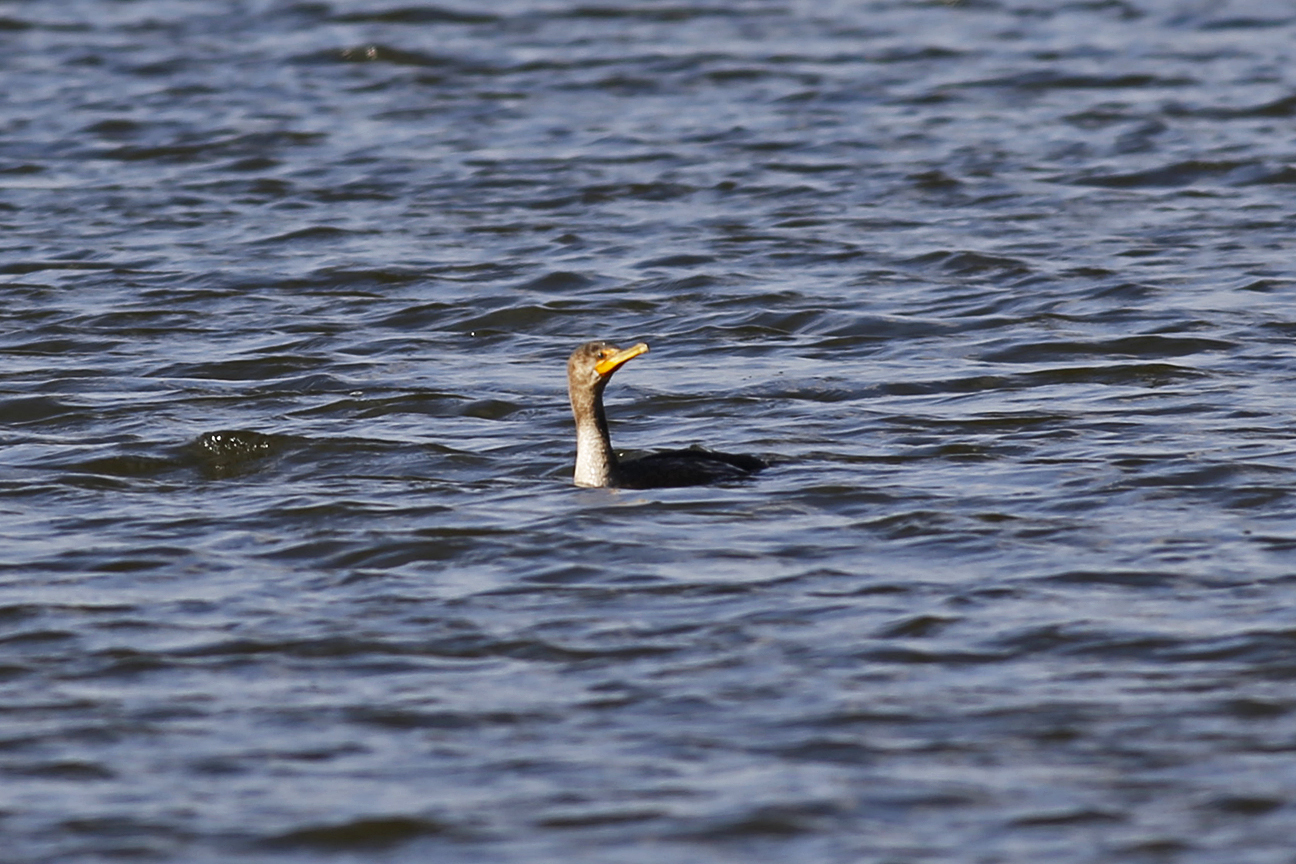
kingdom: Animalia
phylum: Chordata
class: Aves
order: Suliformes
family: Phalacrocoracidae
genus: Phalacrocorax
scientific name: Phalacrocorax auritus
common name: Double-crested cormorant
